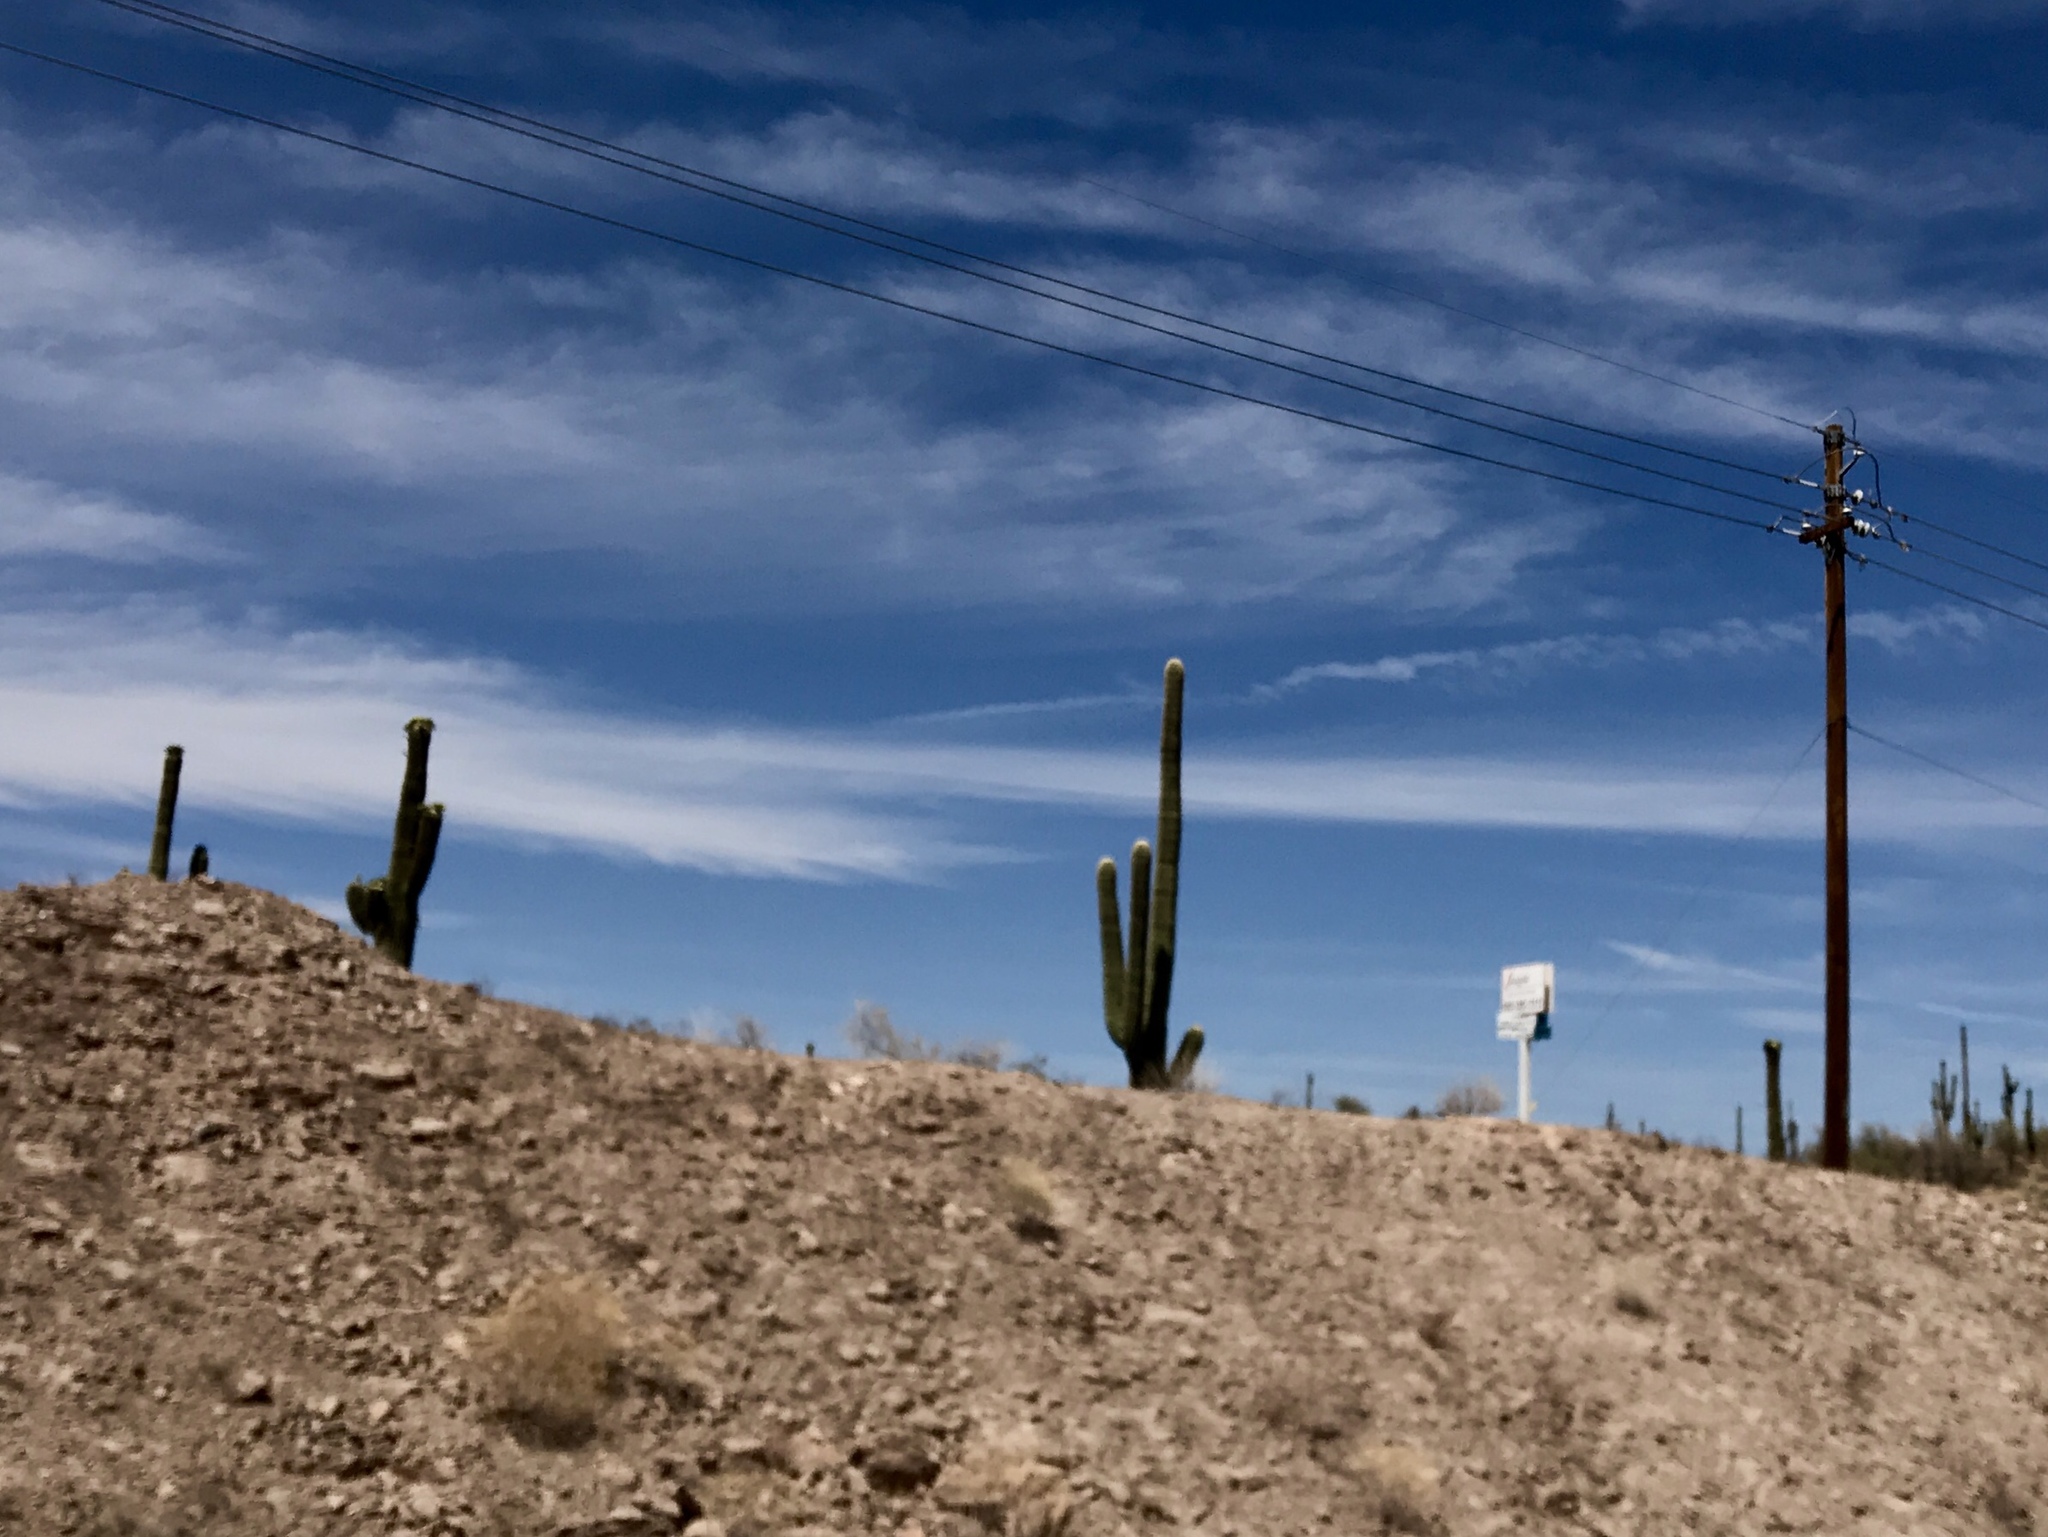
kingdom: Plantae
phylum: Tracheophyta
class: Magnoliopsida
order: Caryophyllales
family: Cactaceae
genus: Carnegiea
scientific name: Carnegiea gigantea
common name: Saguaro
